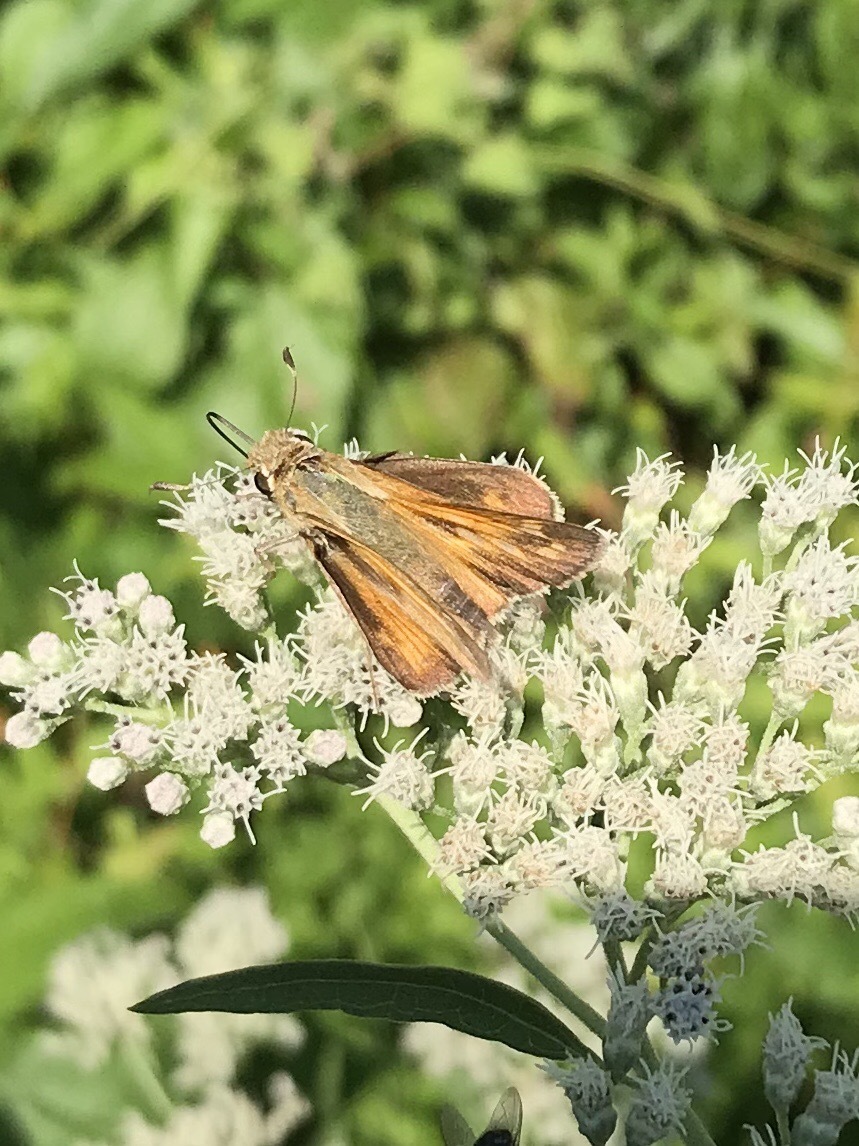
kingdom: Animalia
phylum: Arthropoda
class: Insecta
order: Lepidoptera
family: Hesperiidae
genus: Atalopedes
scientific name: Atalopedes
